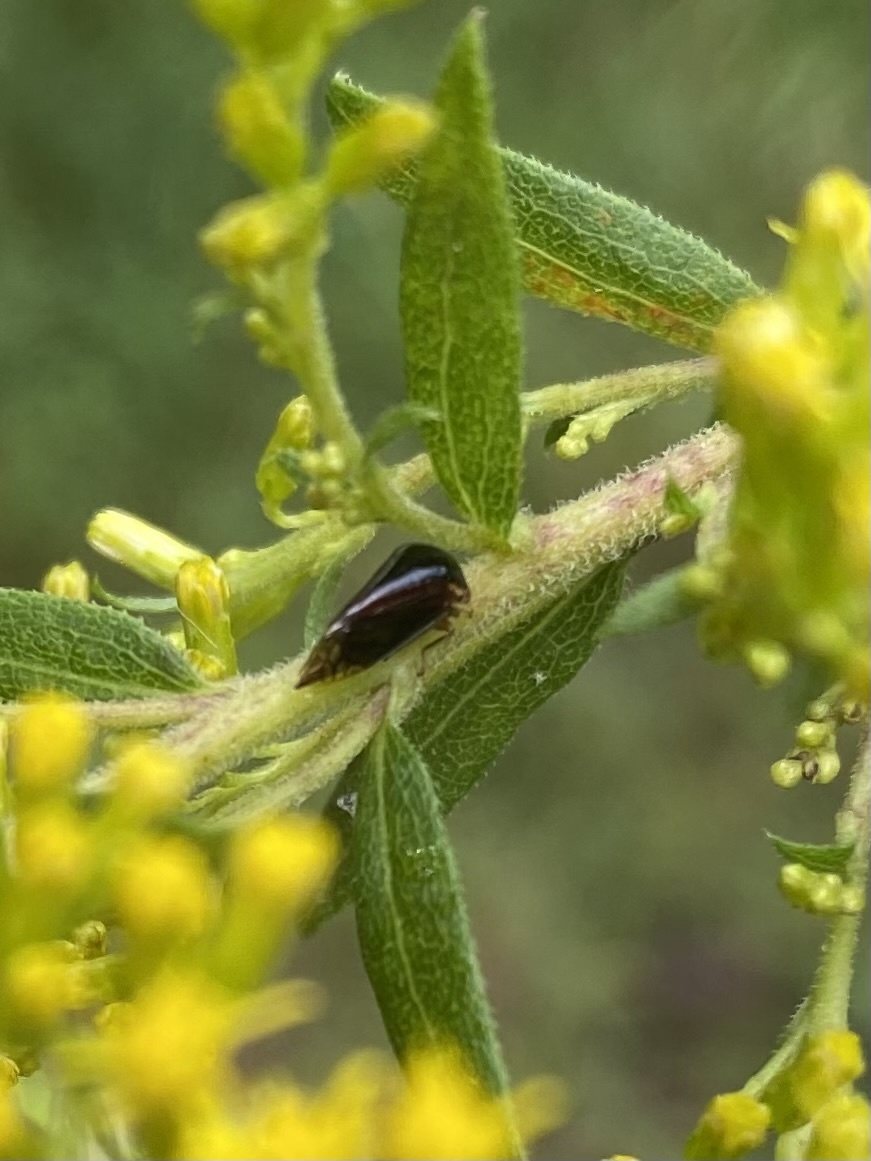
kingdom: Animalia
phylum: Arthropoda
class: Insecta
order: Hemiptera
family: Membracidae
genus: Acutalis
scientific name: Acutalis tartarea
